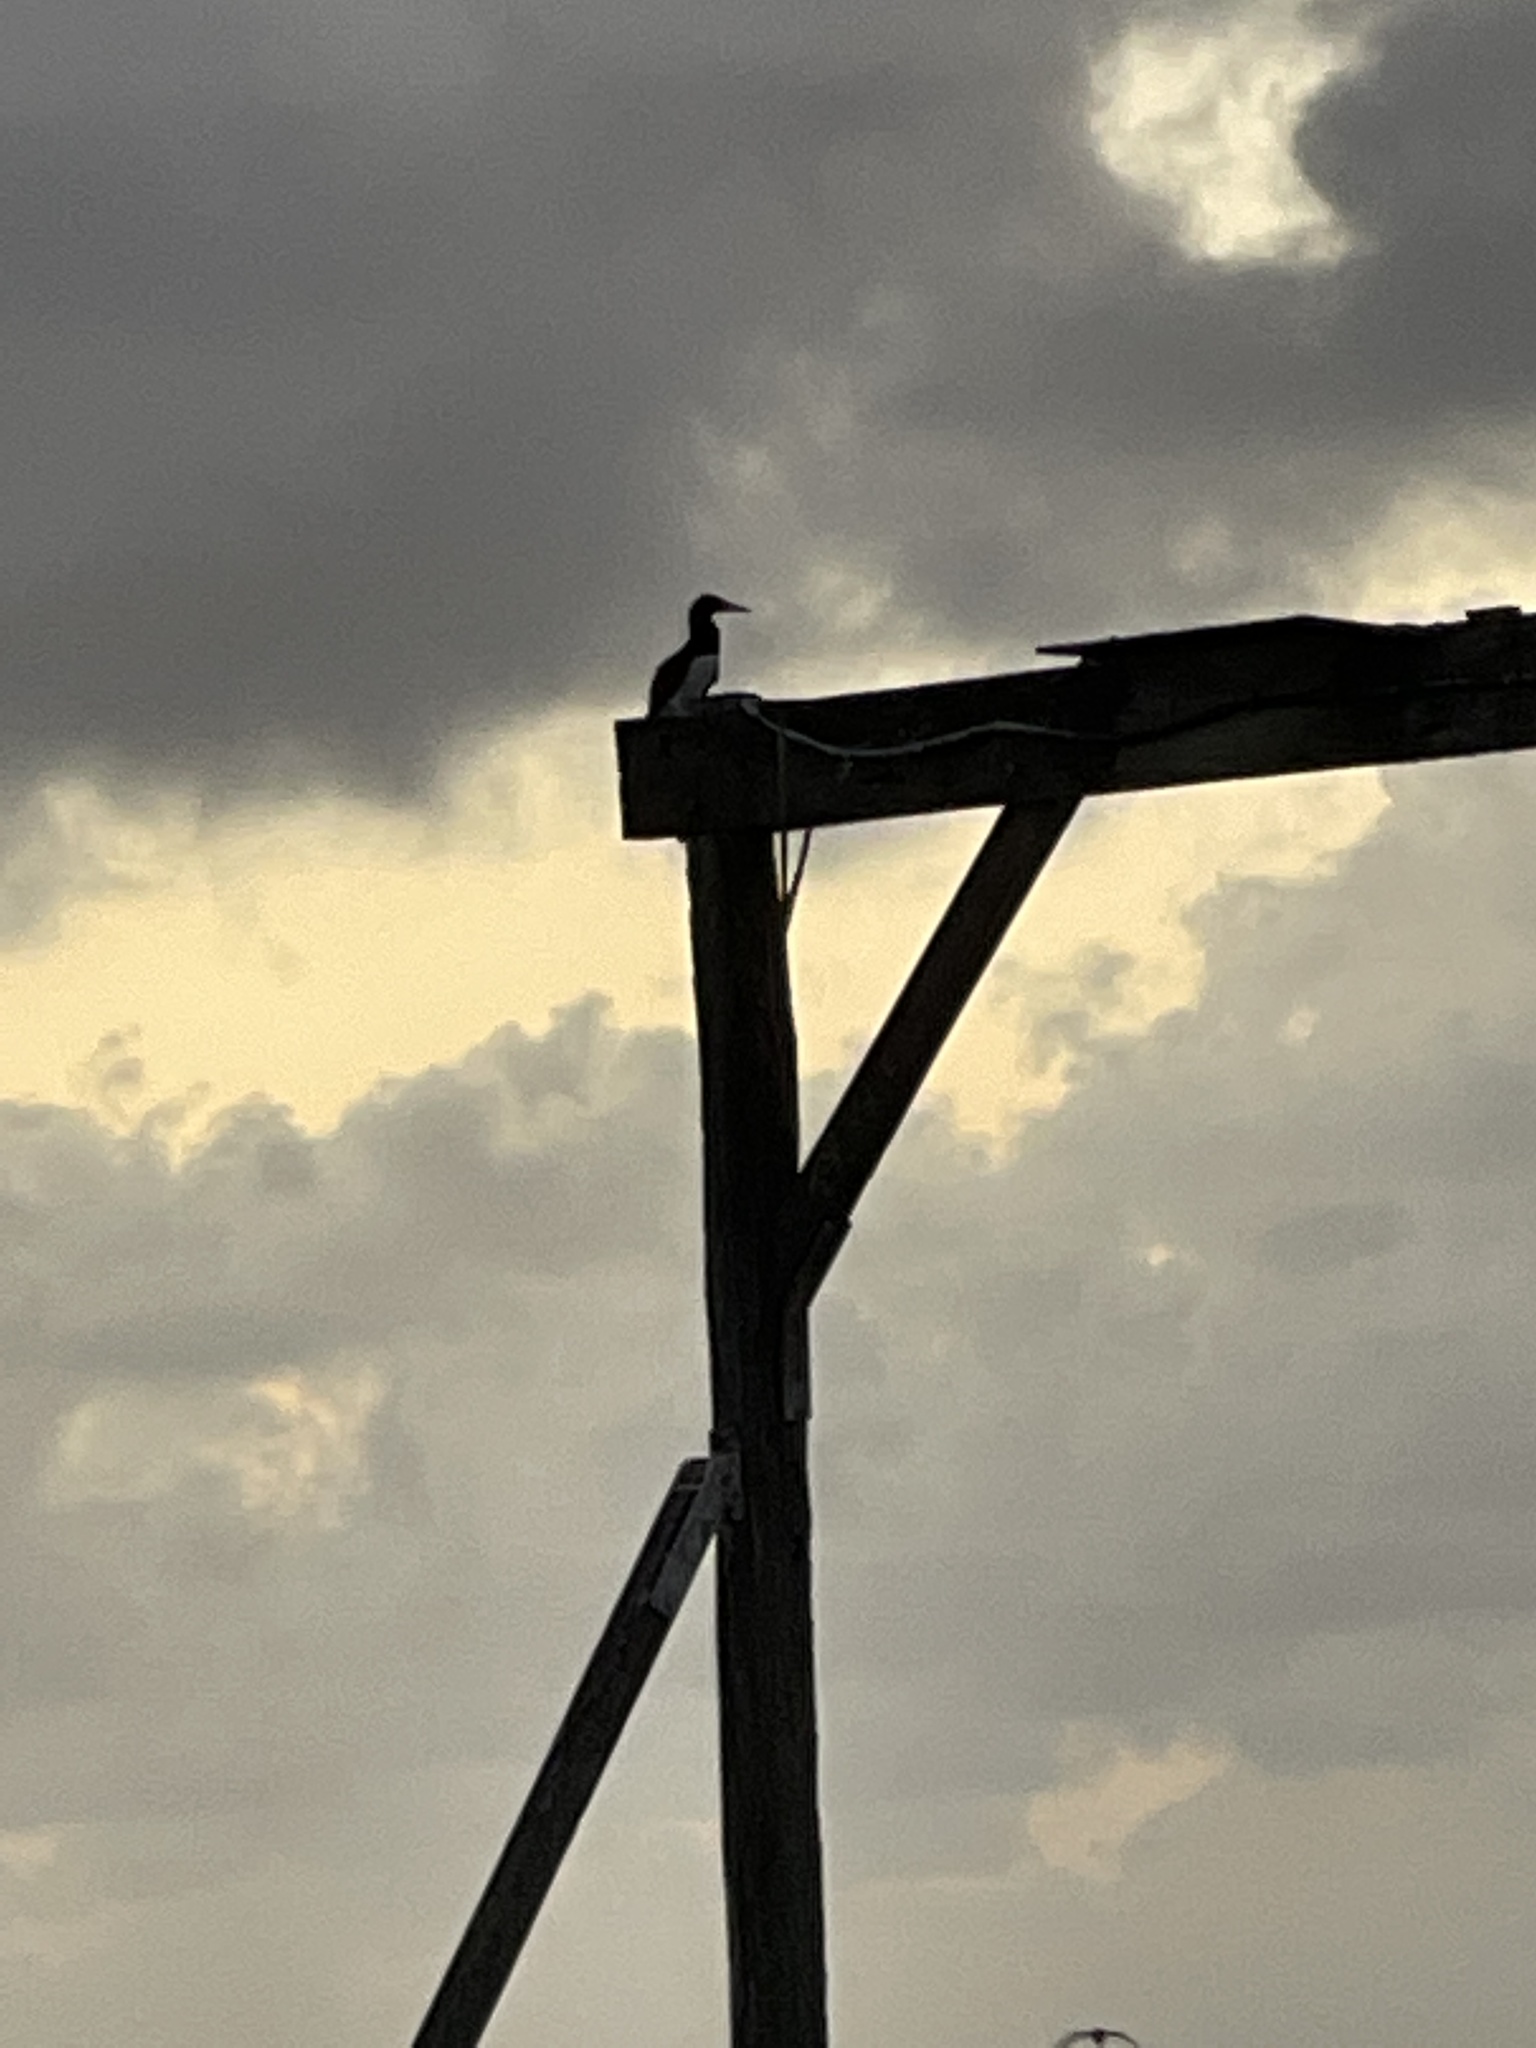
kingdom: Animalia
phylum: Chordata
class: Aves
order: Suliformes
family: Sulidae
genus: Sula
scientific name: Sula leucogaster
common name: Brown booby
